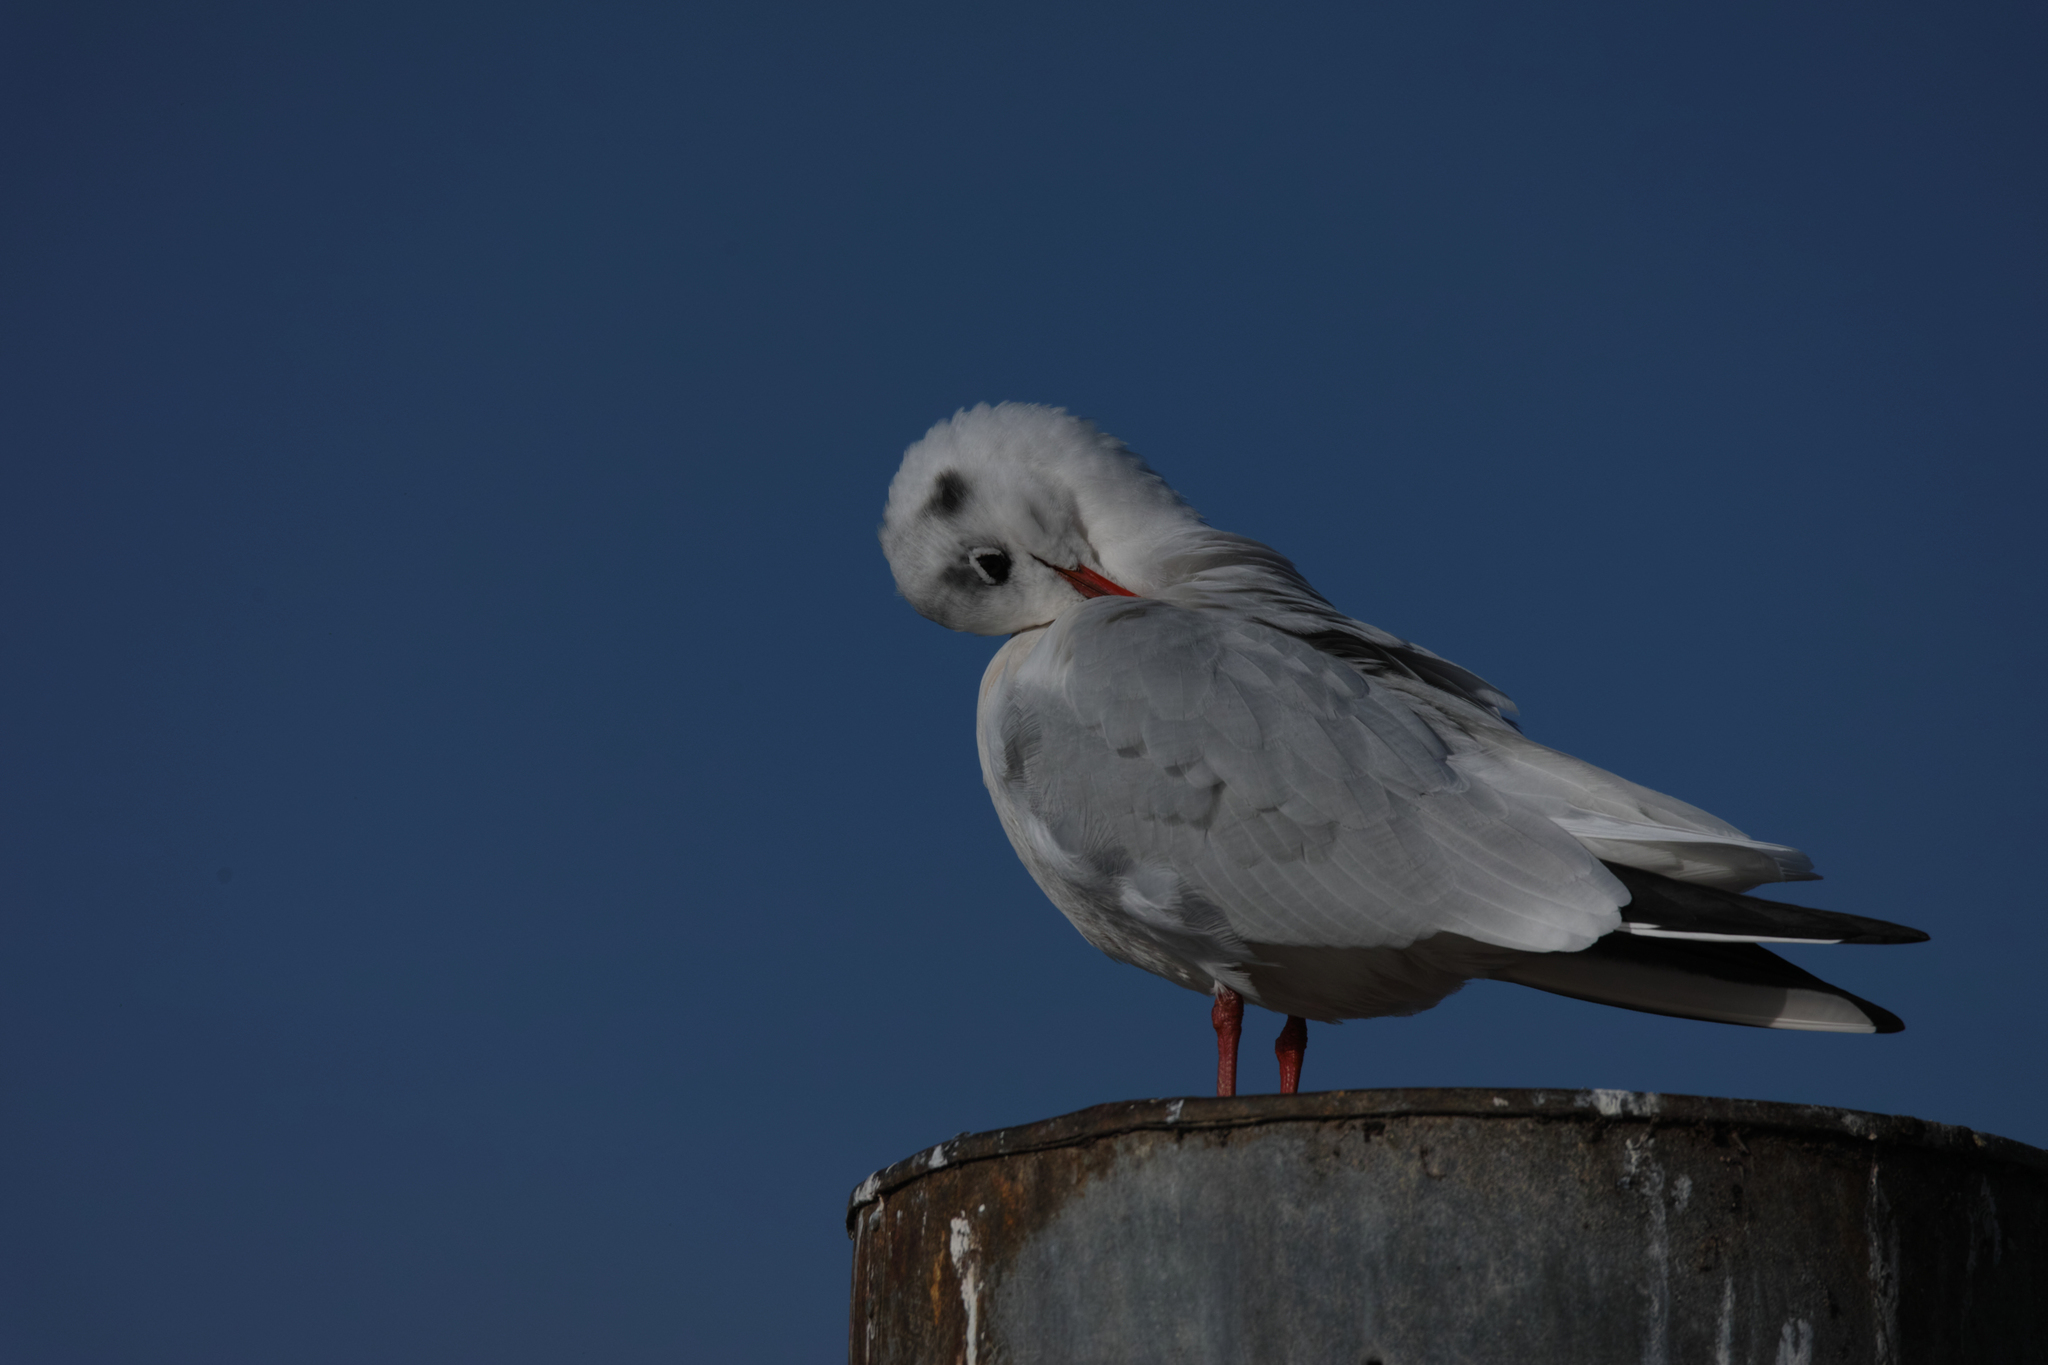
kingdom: Animalia
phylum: Chordata
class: Aves
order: Charadriiformes
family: Laridae
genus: Chroicocephalus
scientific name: Chroicocephalus ridibundus
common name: Black-headed gull
